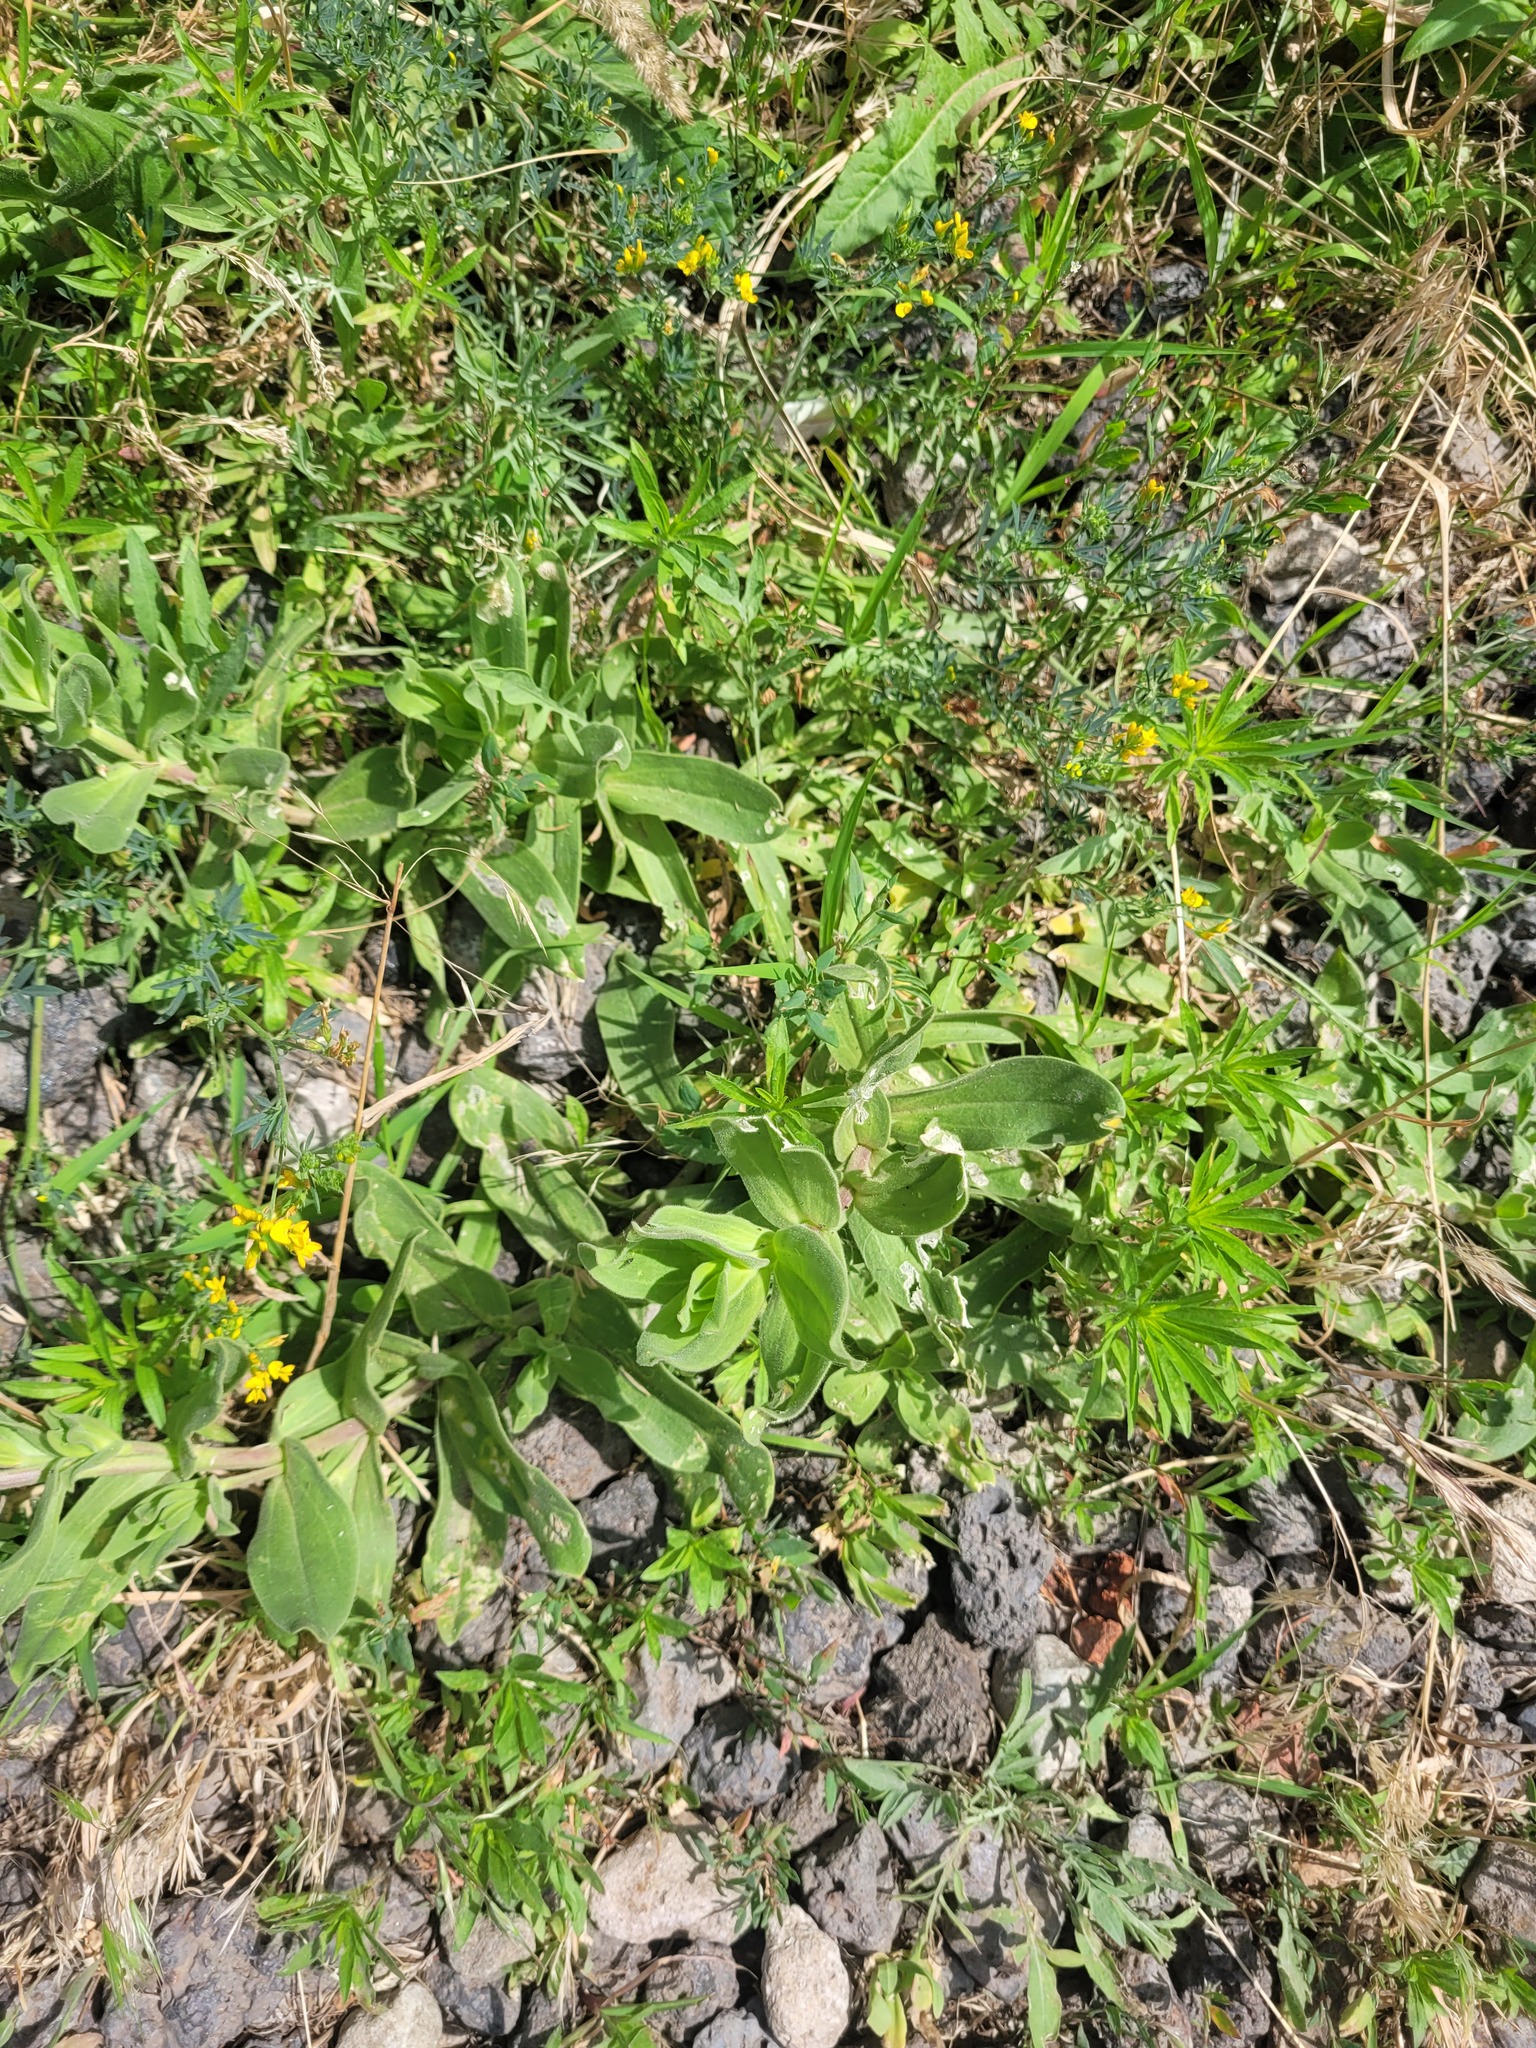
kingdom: Plantae
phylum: Tracheophyta
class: Magnoliopsida
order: Caryophyllales
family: Caryophyllaceae
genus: Gypsophila
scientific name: Gypsophila perfoliata
